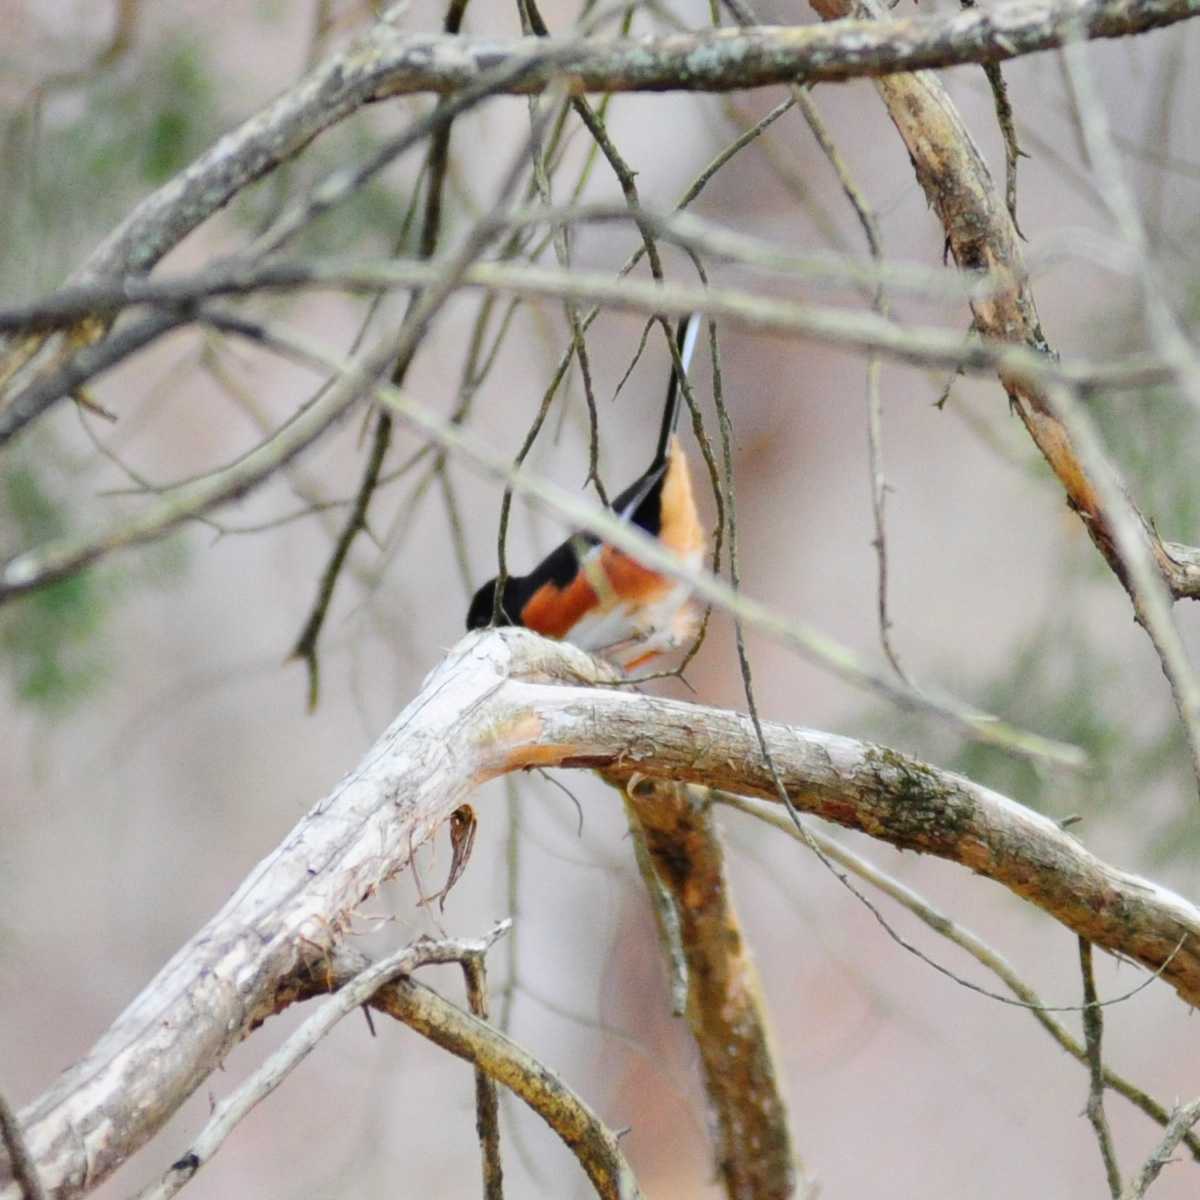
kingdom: Animalia
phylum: Chordata
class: Aves
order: Passeriformes
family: Passerellidae
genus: Pipilo
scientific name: Pipilo erythrophthalmus
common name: Eastern towhee
